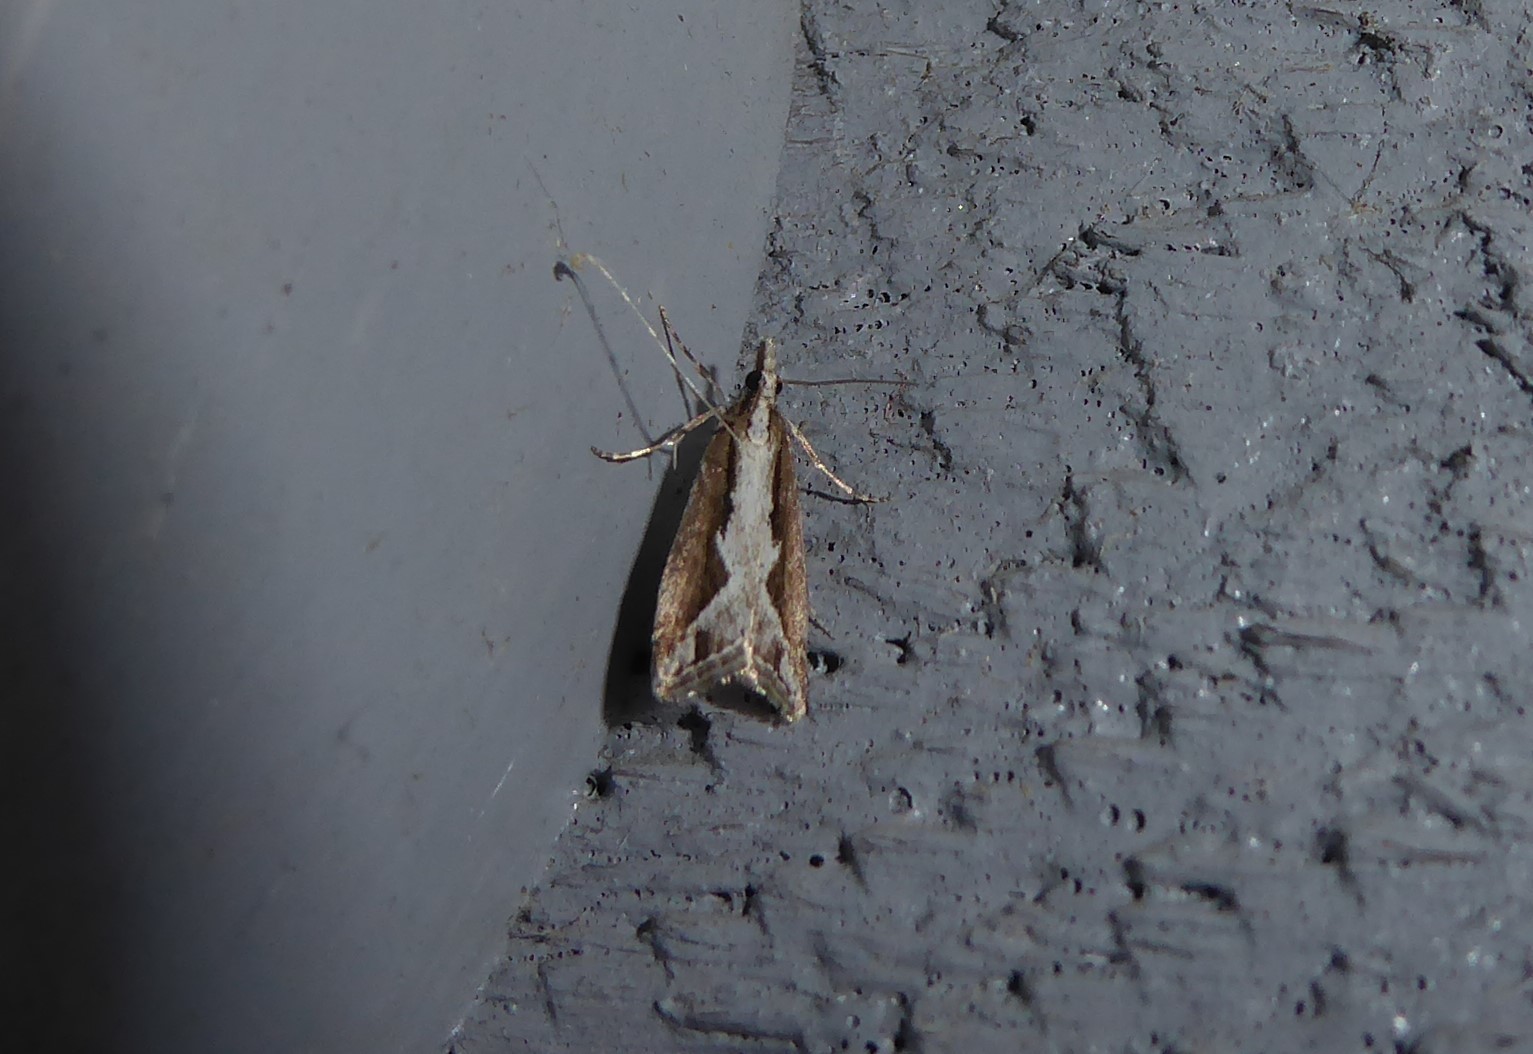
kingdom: Animalia
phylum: Arthropoda
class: Insecta
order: Lepidoptera
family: Crambidae
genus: Eudonia
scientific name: Eudonia steropaea
